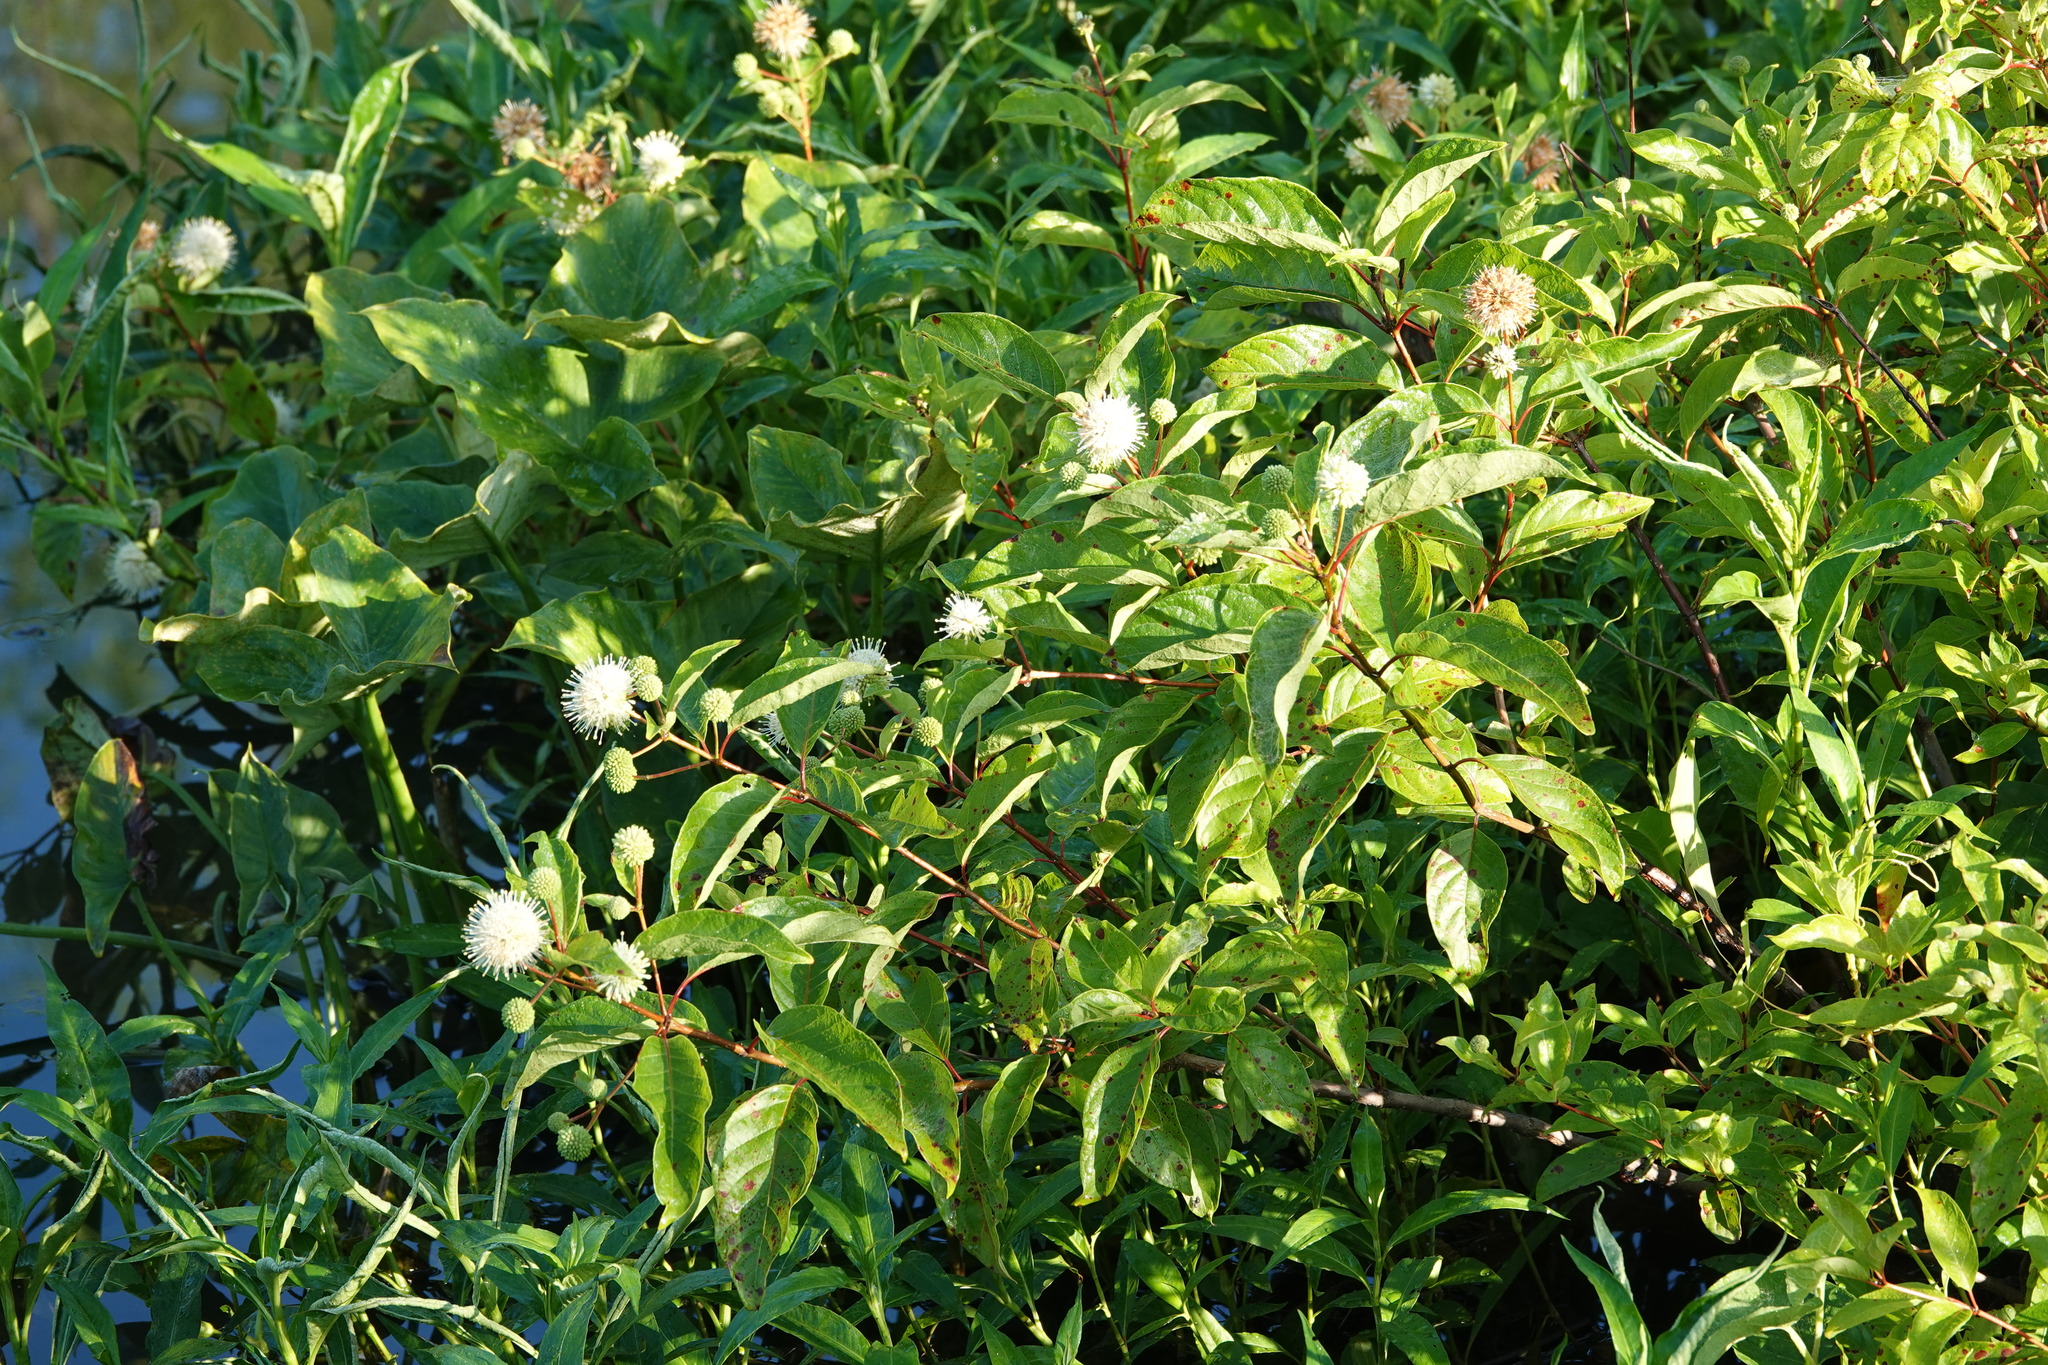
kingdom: Plantae
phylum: Tracheophyta
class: Magnoliopsida
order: Gentianales
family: Rubiaceae
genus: Cephalanthus
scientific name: Cephalanthus occidentalis
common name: Button-willow
